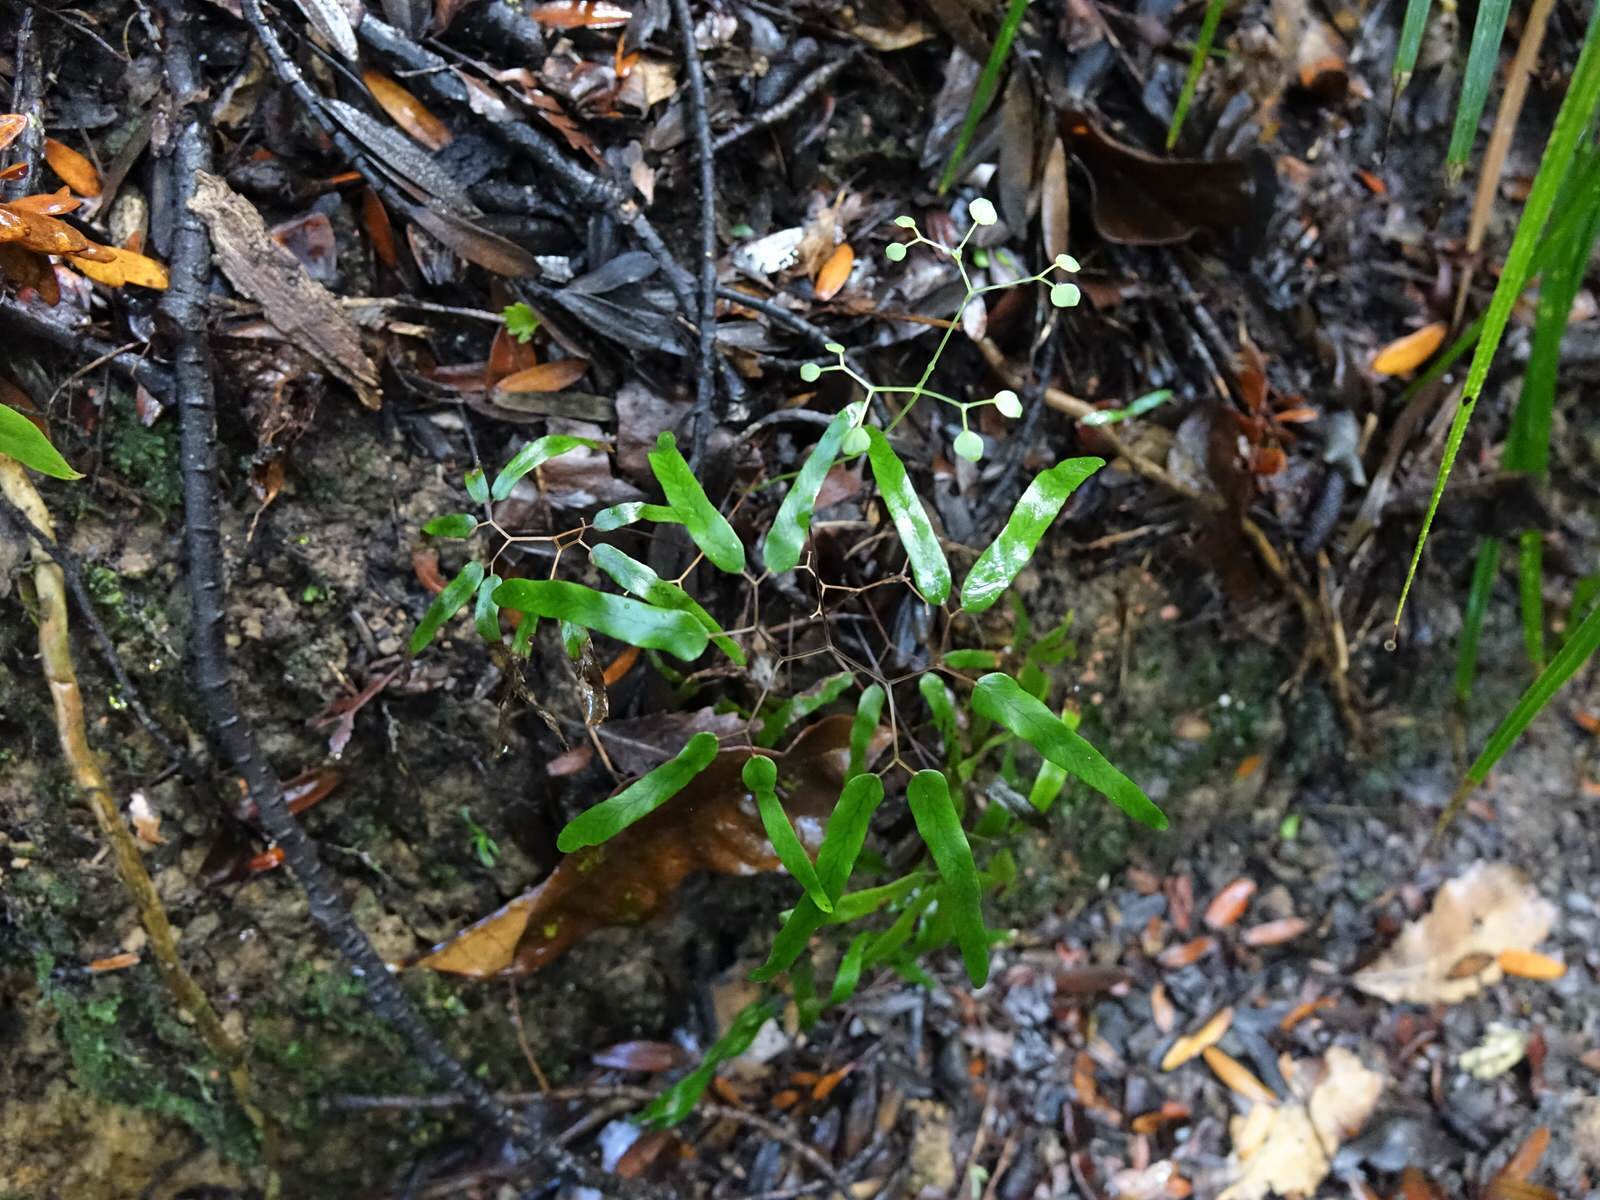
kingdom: Plantae
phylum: Tracheophyta
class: Polypodiopsida
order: Schizaeales
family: Lygodiaceae
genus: Lygodium
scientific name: Lygodium articulatum
